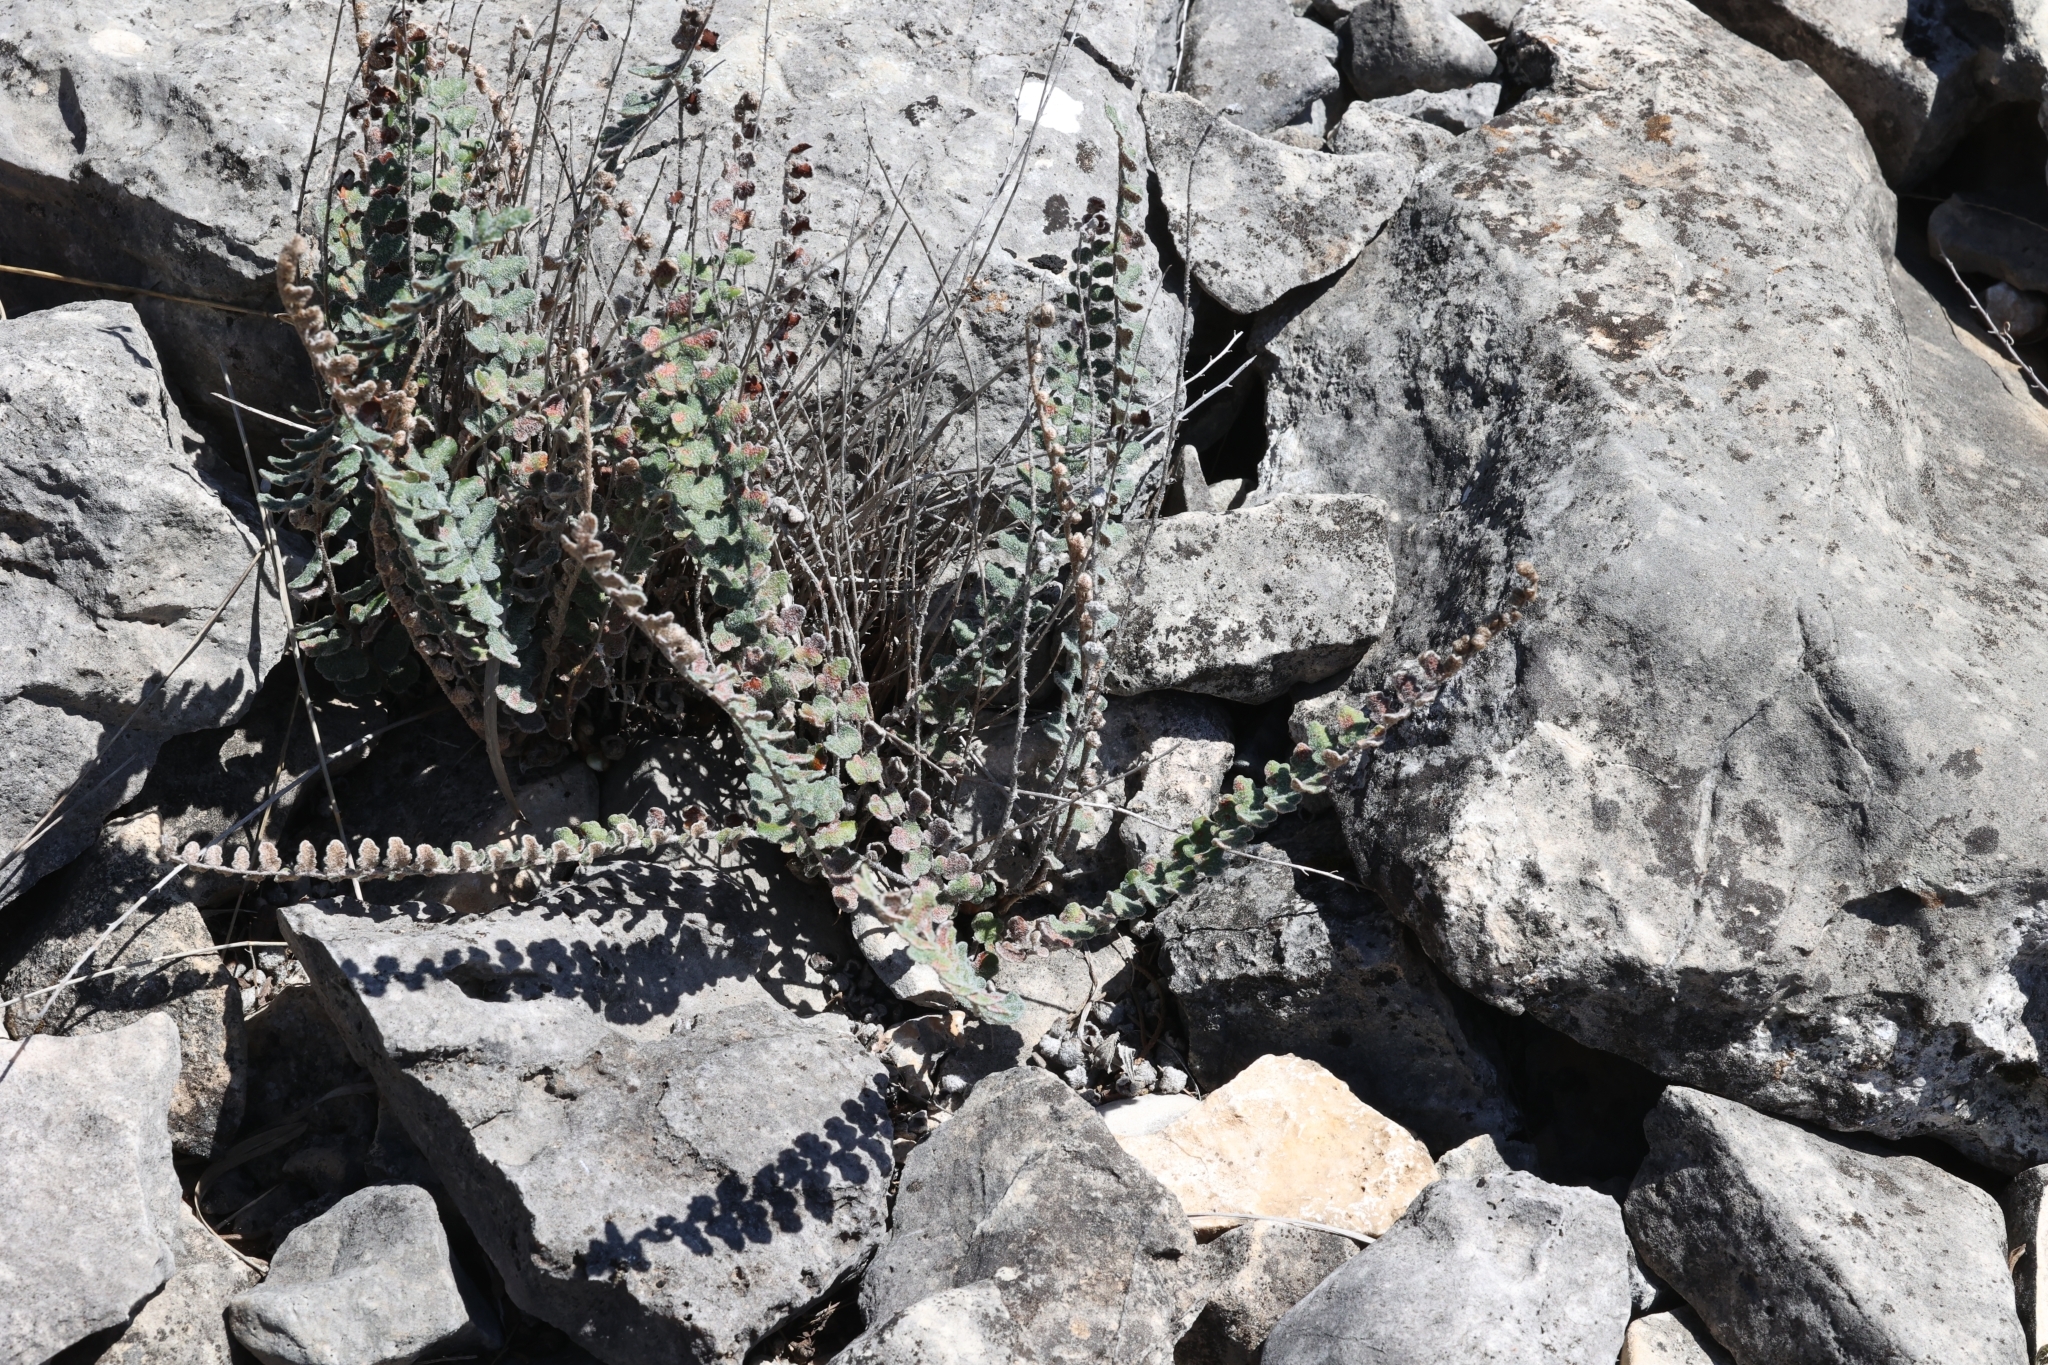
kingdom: Plantae
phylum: Tracheophyta
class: Polypodiopsida
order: Polypodiales
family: Pteridaceae
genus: Astrolepis
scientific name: Astrolepis cochisensis
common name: Scaly cloak fern
